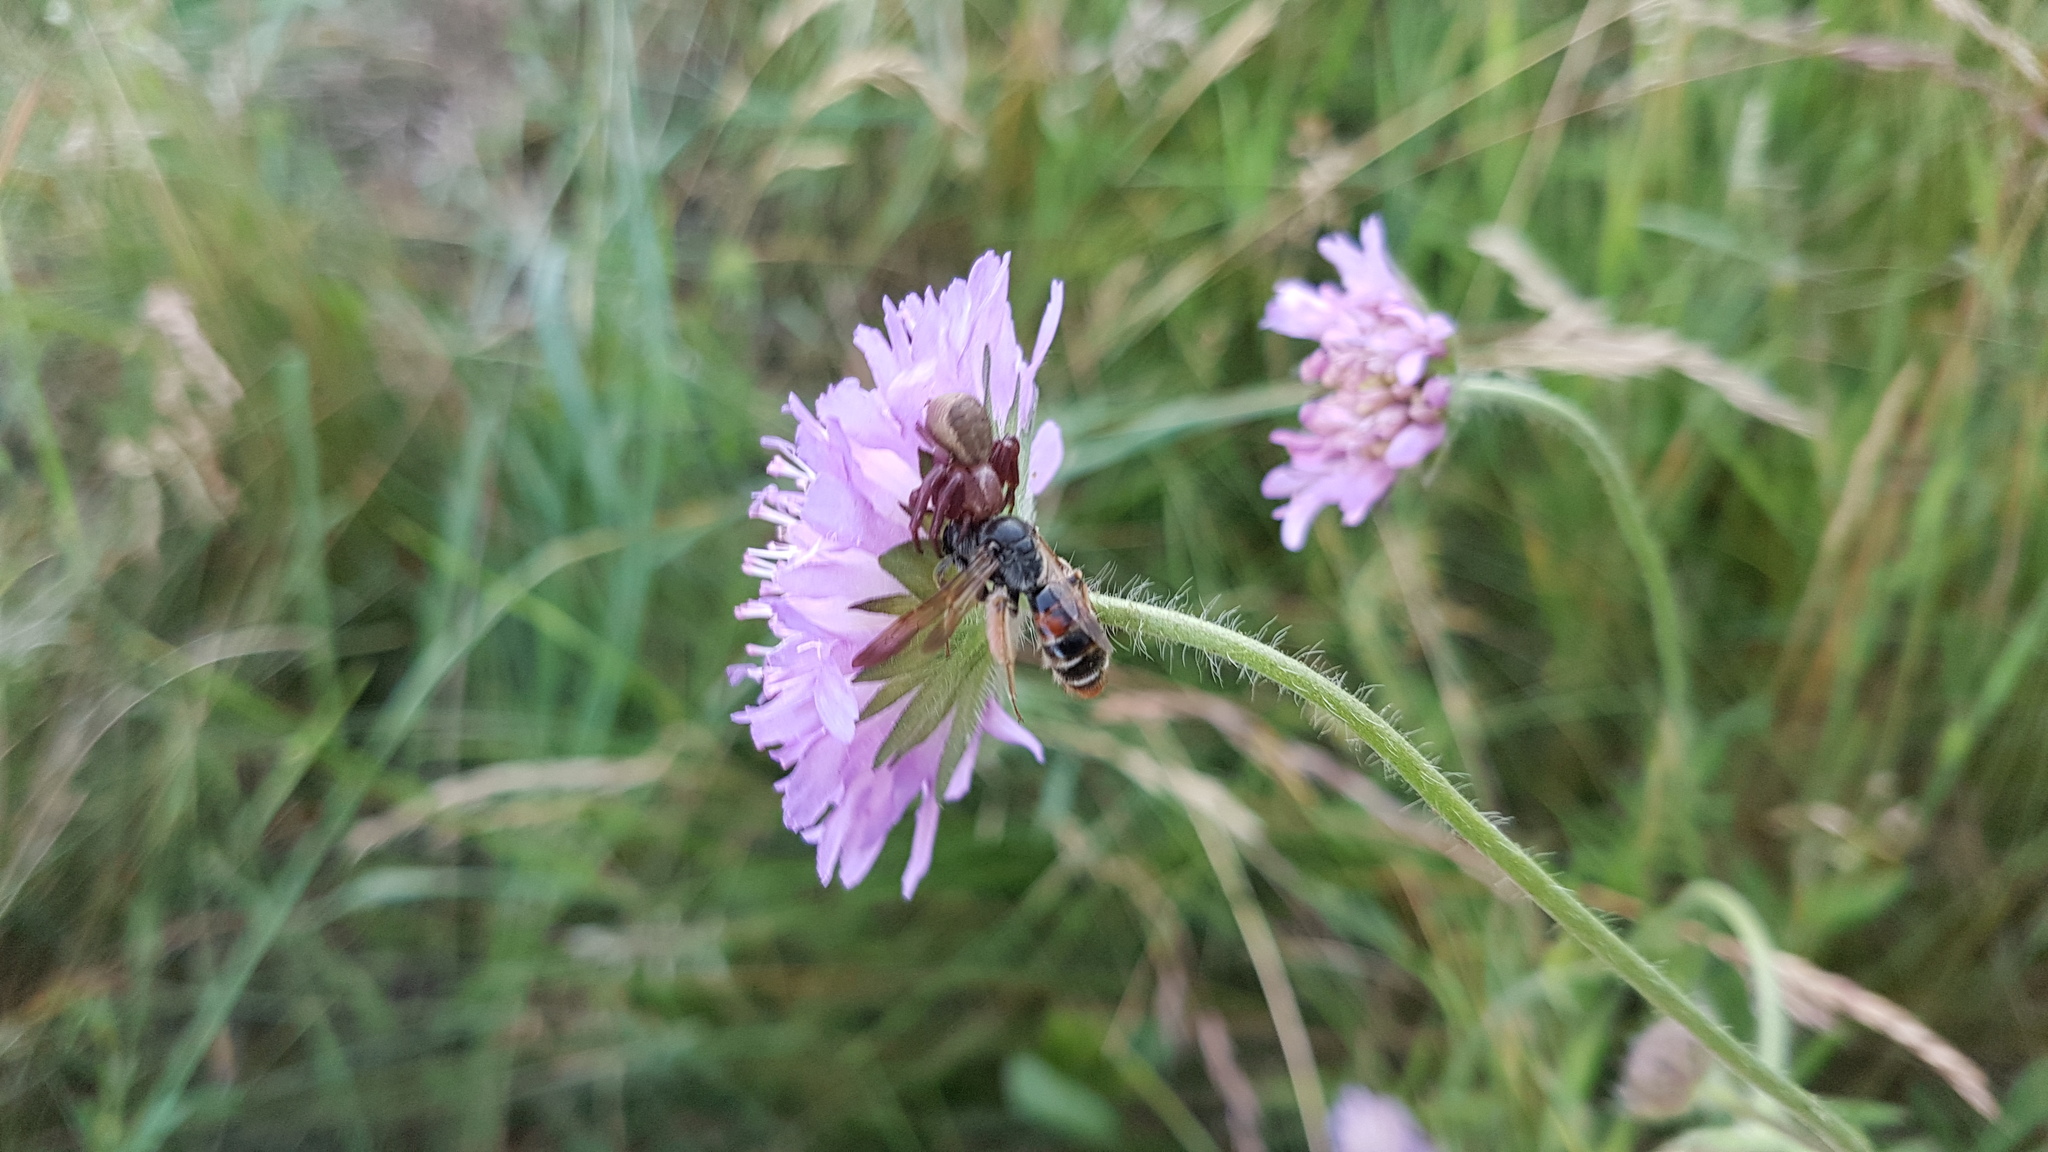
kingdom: Animalia
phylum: Arthropoda
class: Insecta
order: Hymenoptera
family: Andrenidae
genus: Andrena
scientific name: Andrena hattorfiana
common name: Large scabious mining bee
